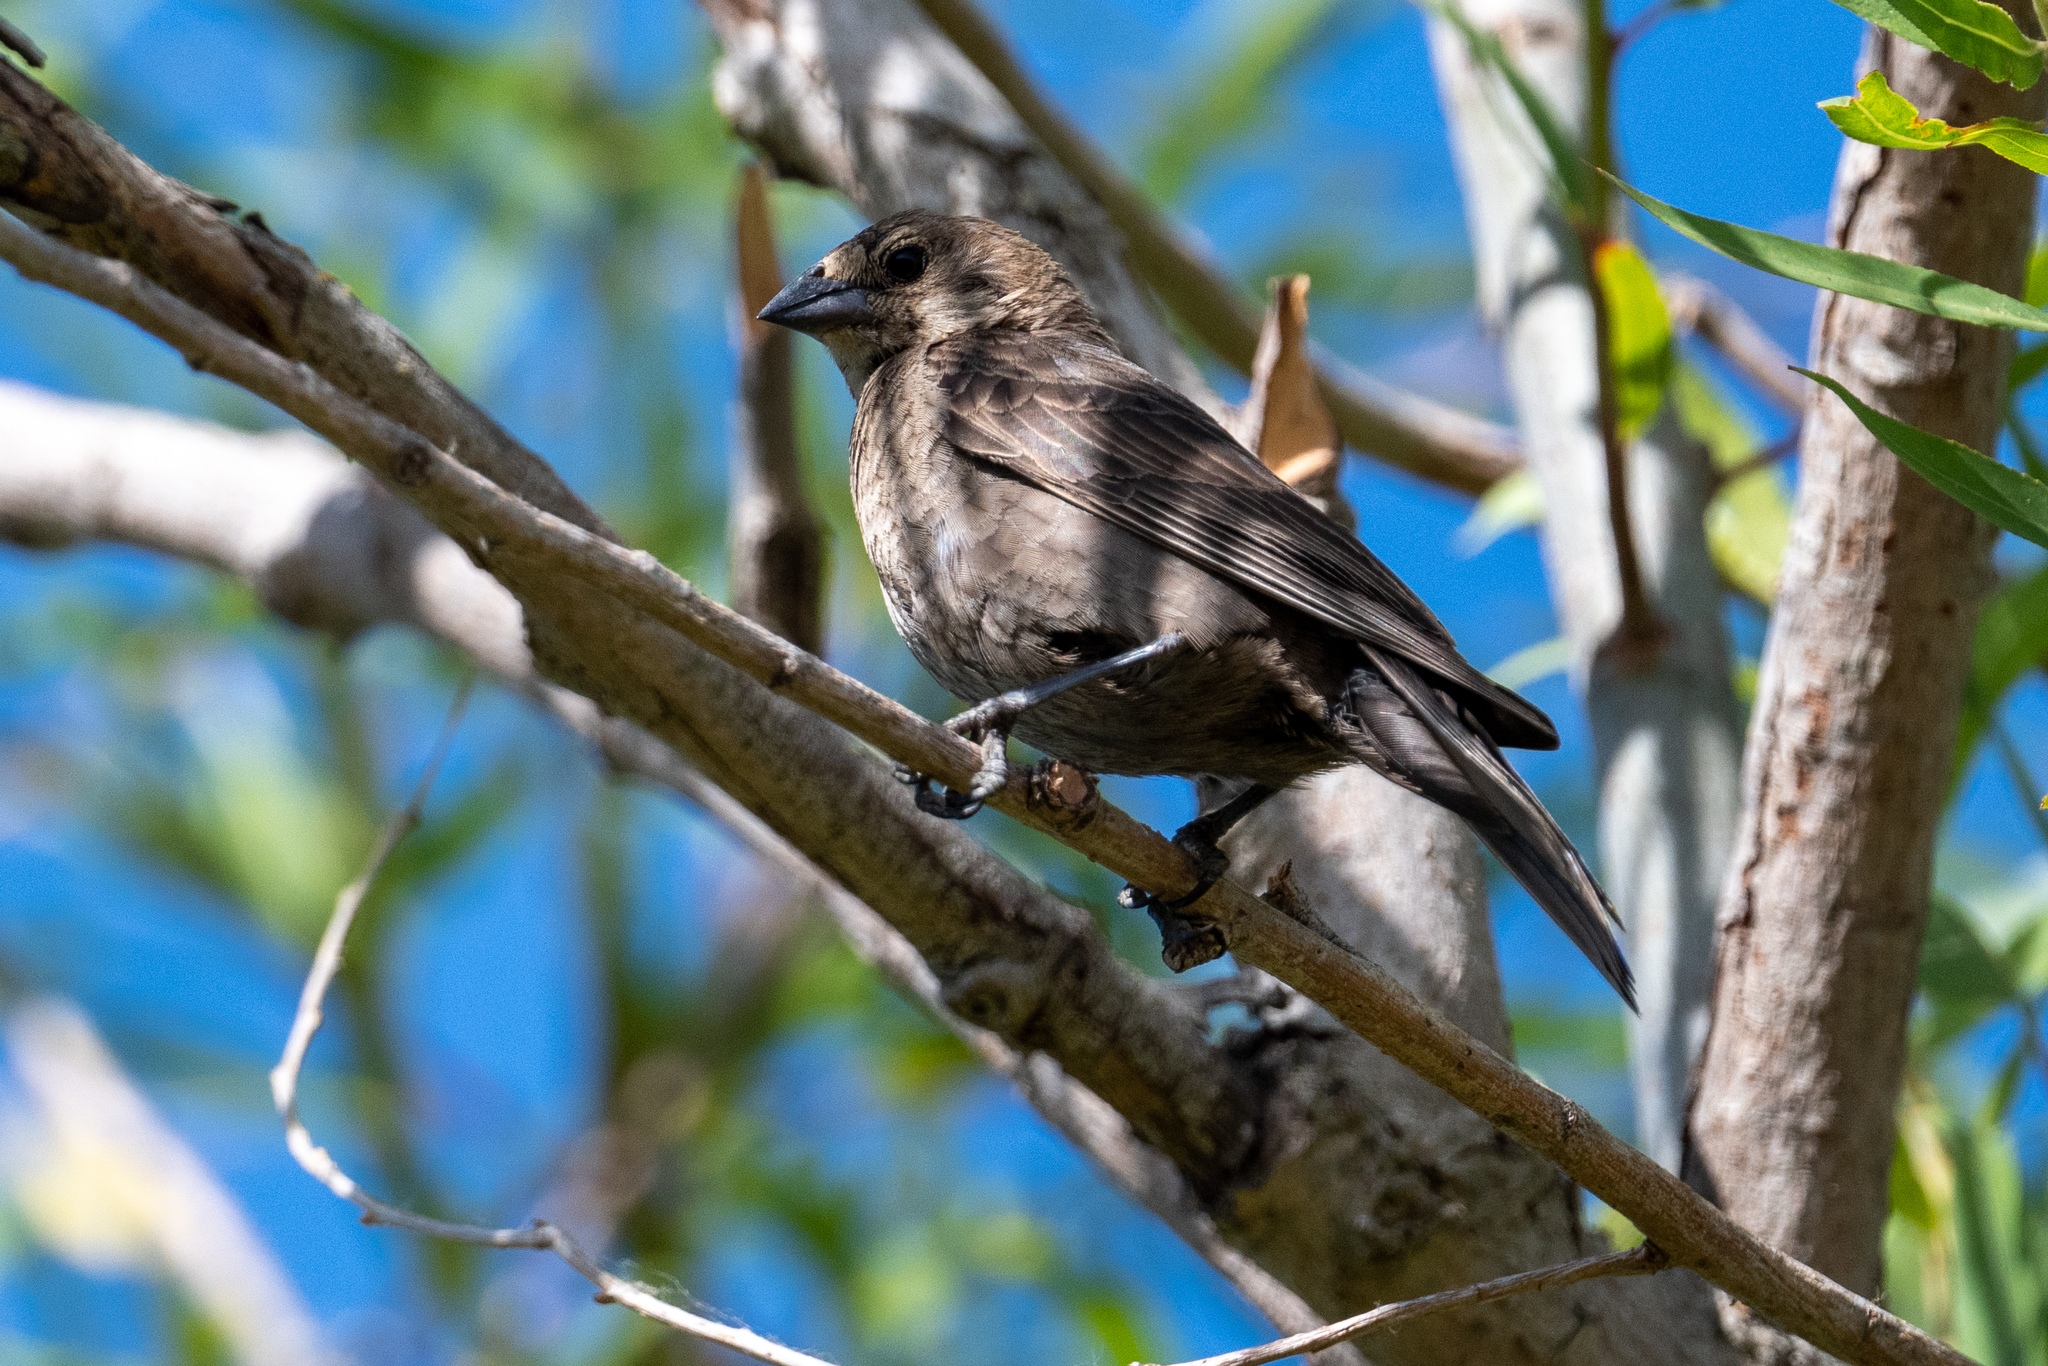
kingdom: Animalia
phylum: Chordata
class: Aves
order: Passeriformes
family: Icteridae
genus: Molothrus
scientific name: Molothrus ater
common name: Brown-headed cowbird
